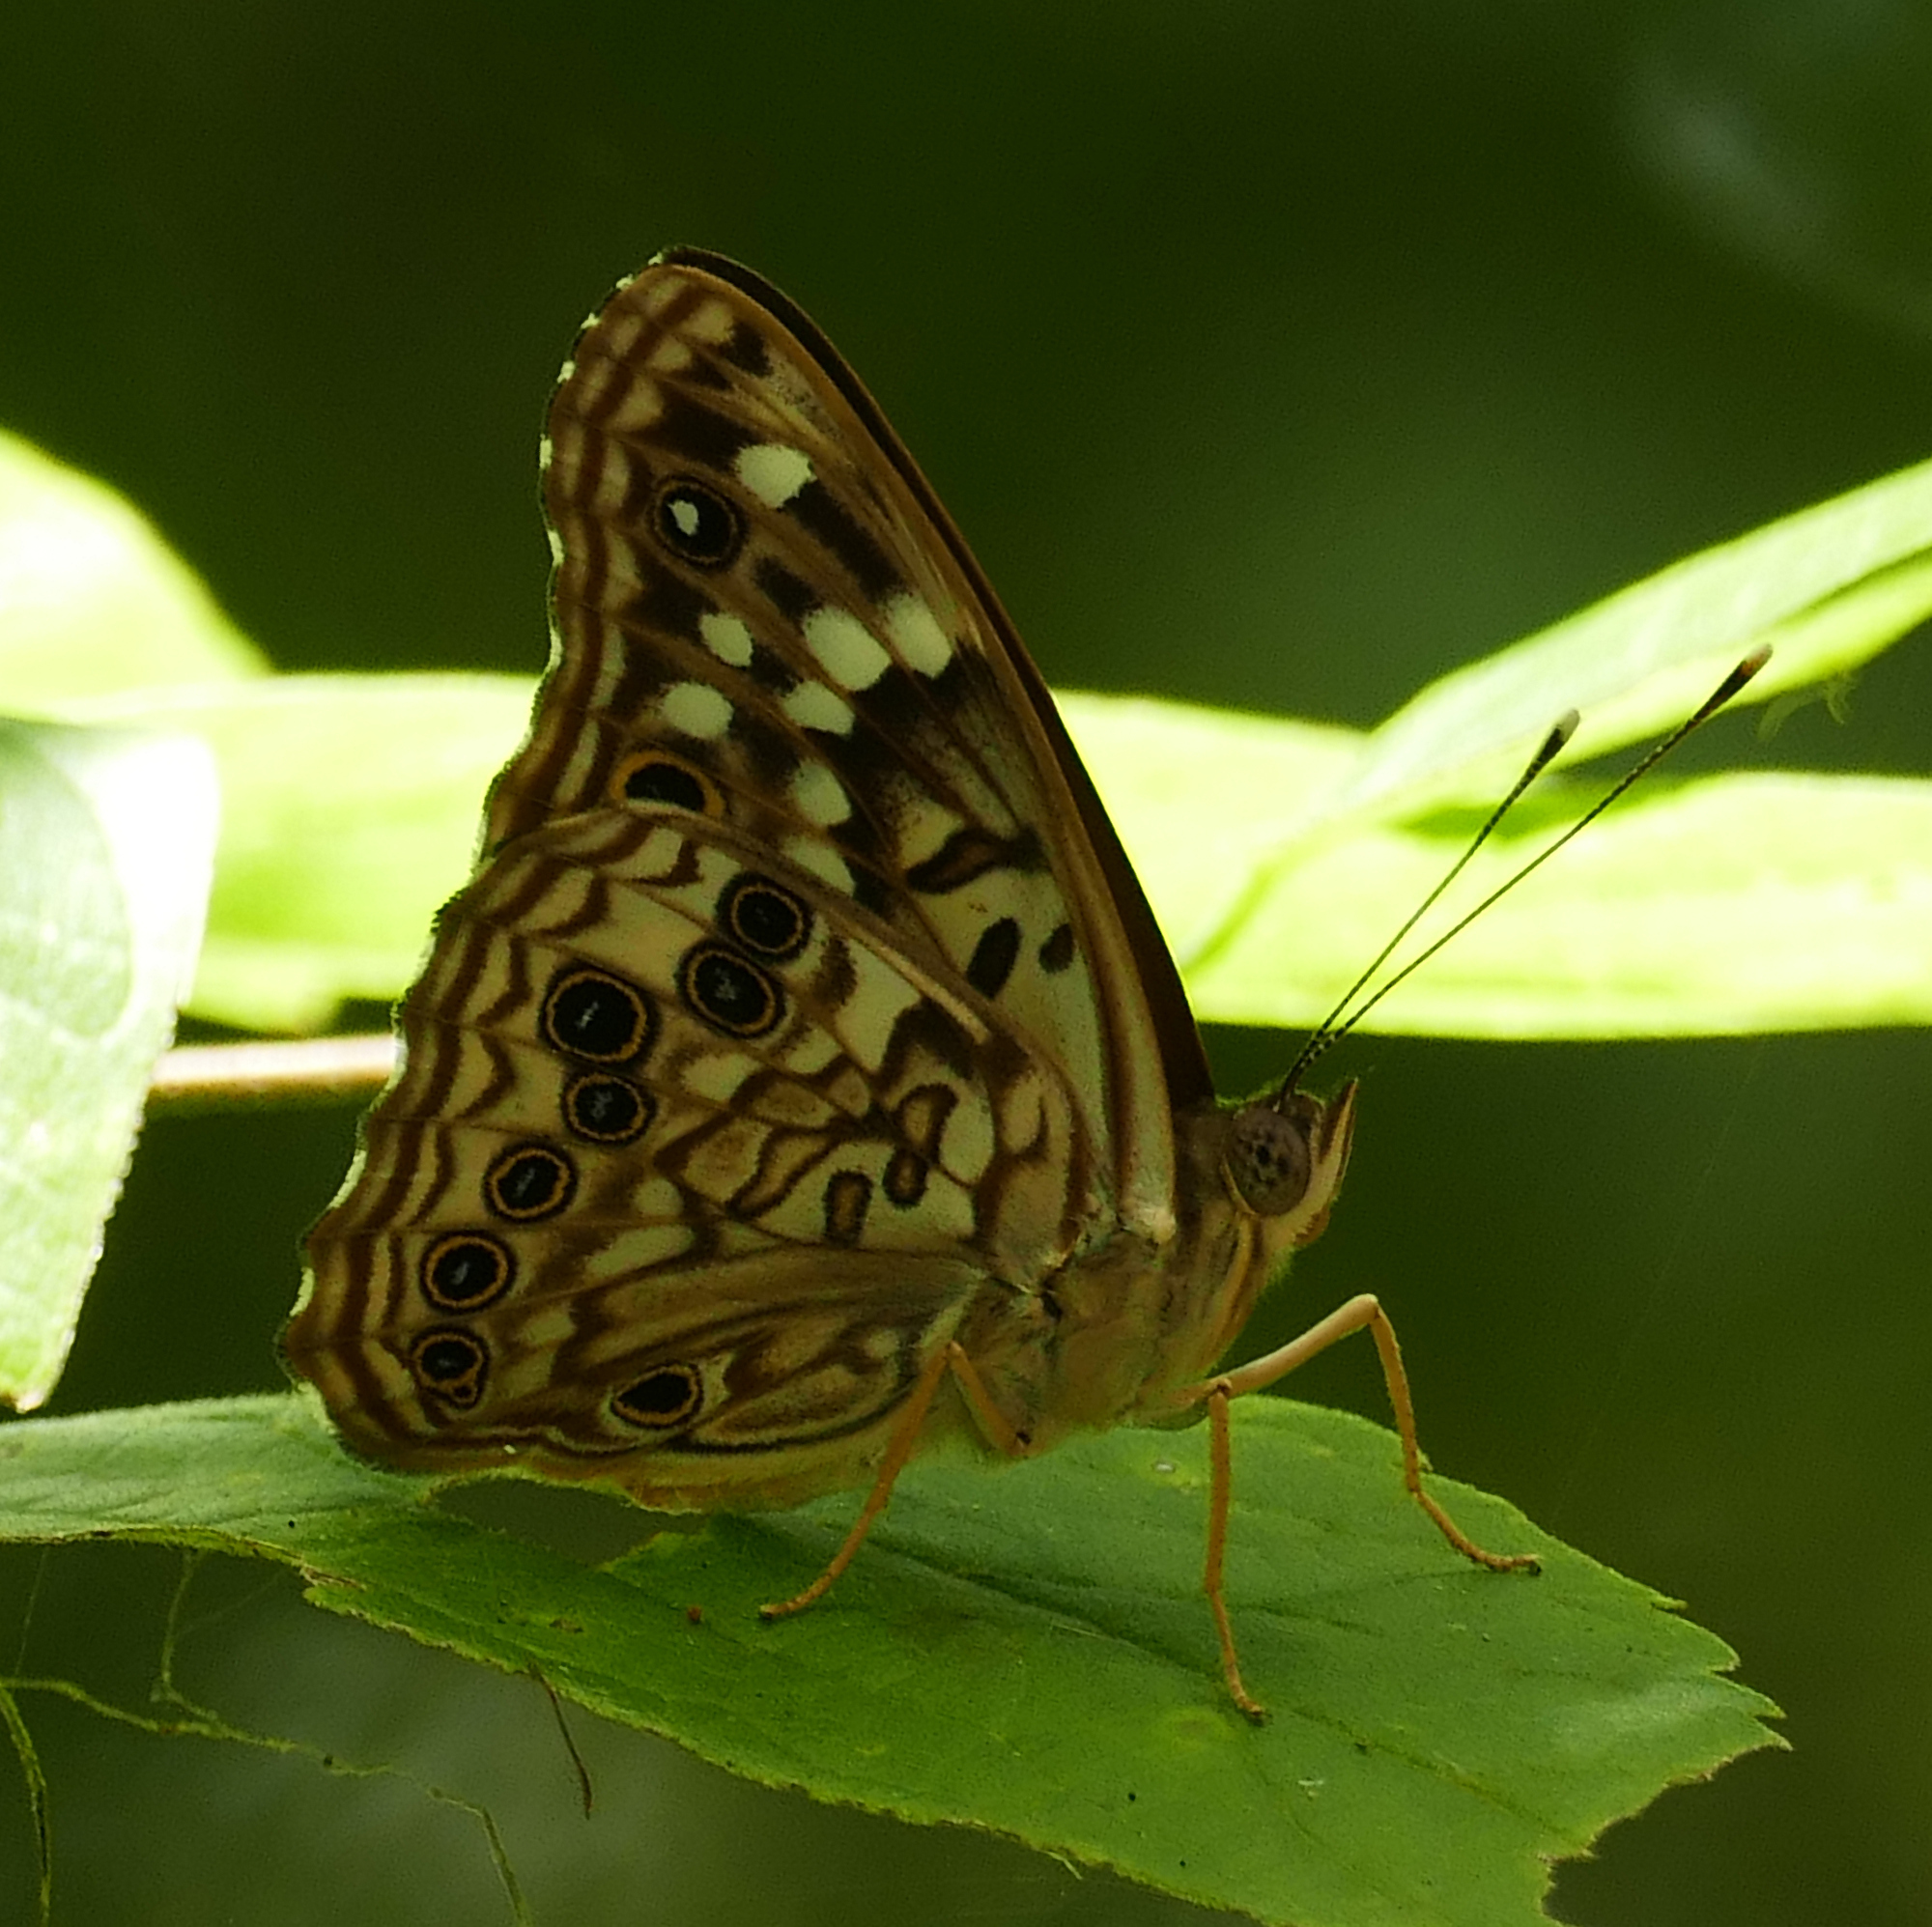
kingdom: Animalia
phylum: Arthropoda
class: Insecta
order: Lepidoptera
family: Nymphalidae
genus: Asterocampa
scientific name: Asterocampa celtis
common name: Hackberry emperor
